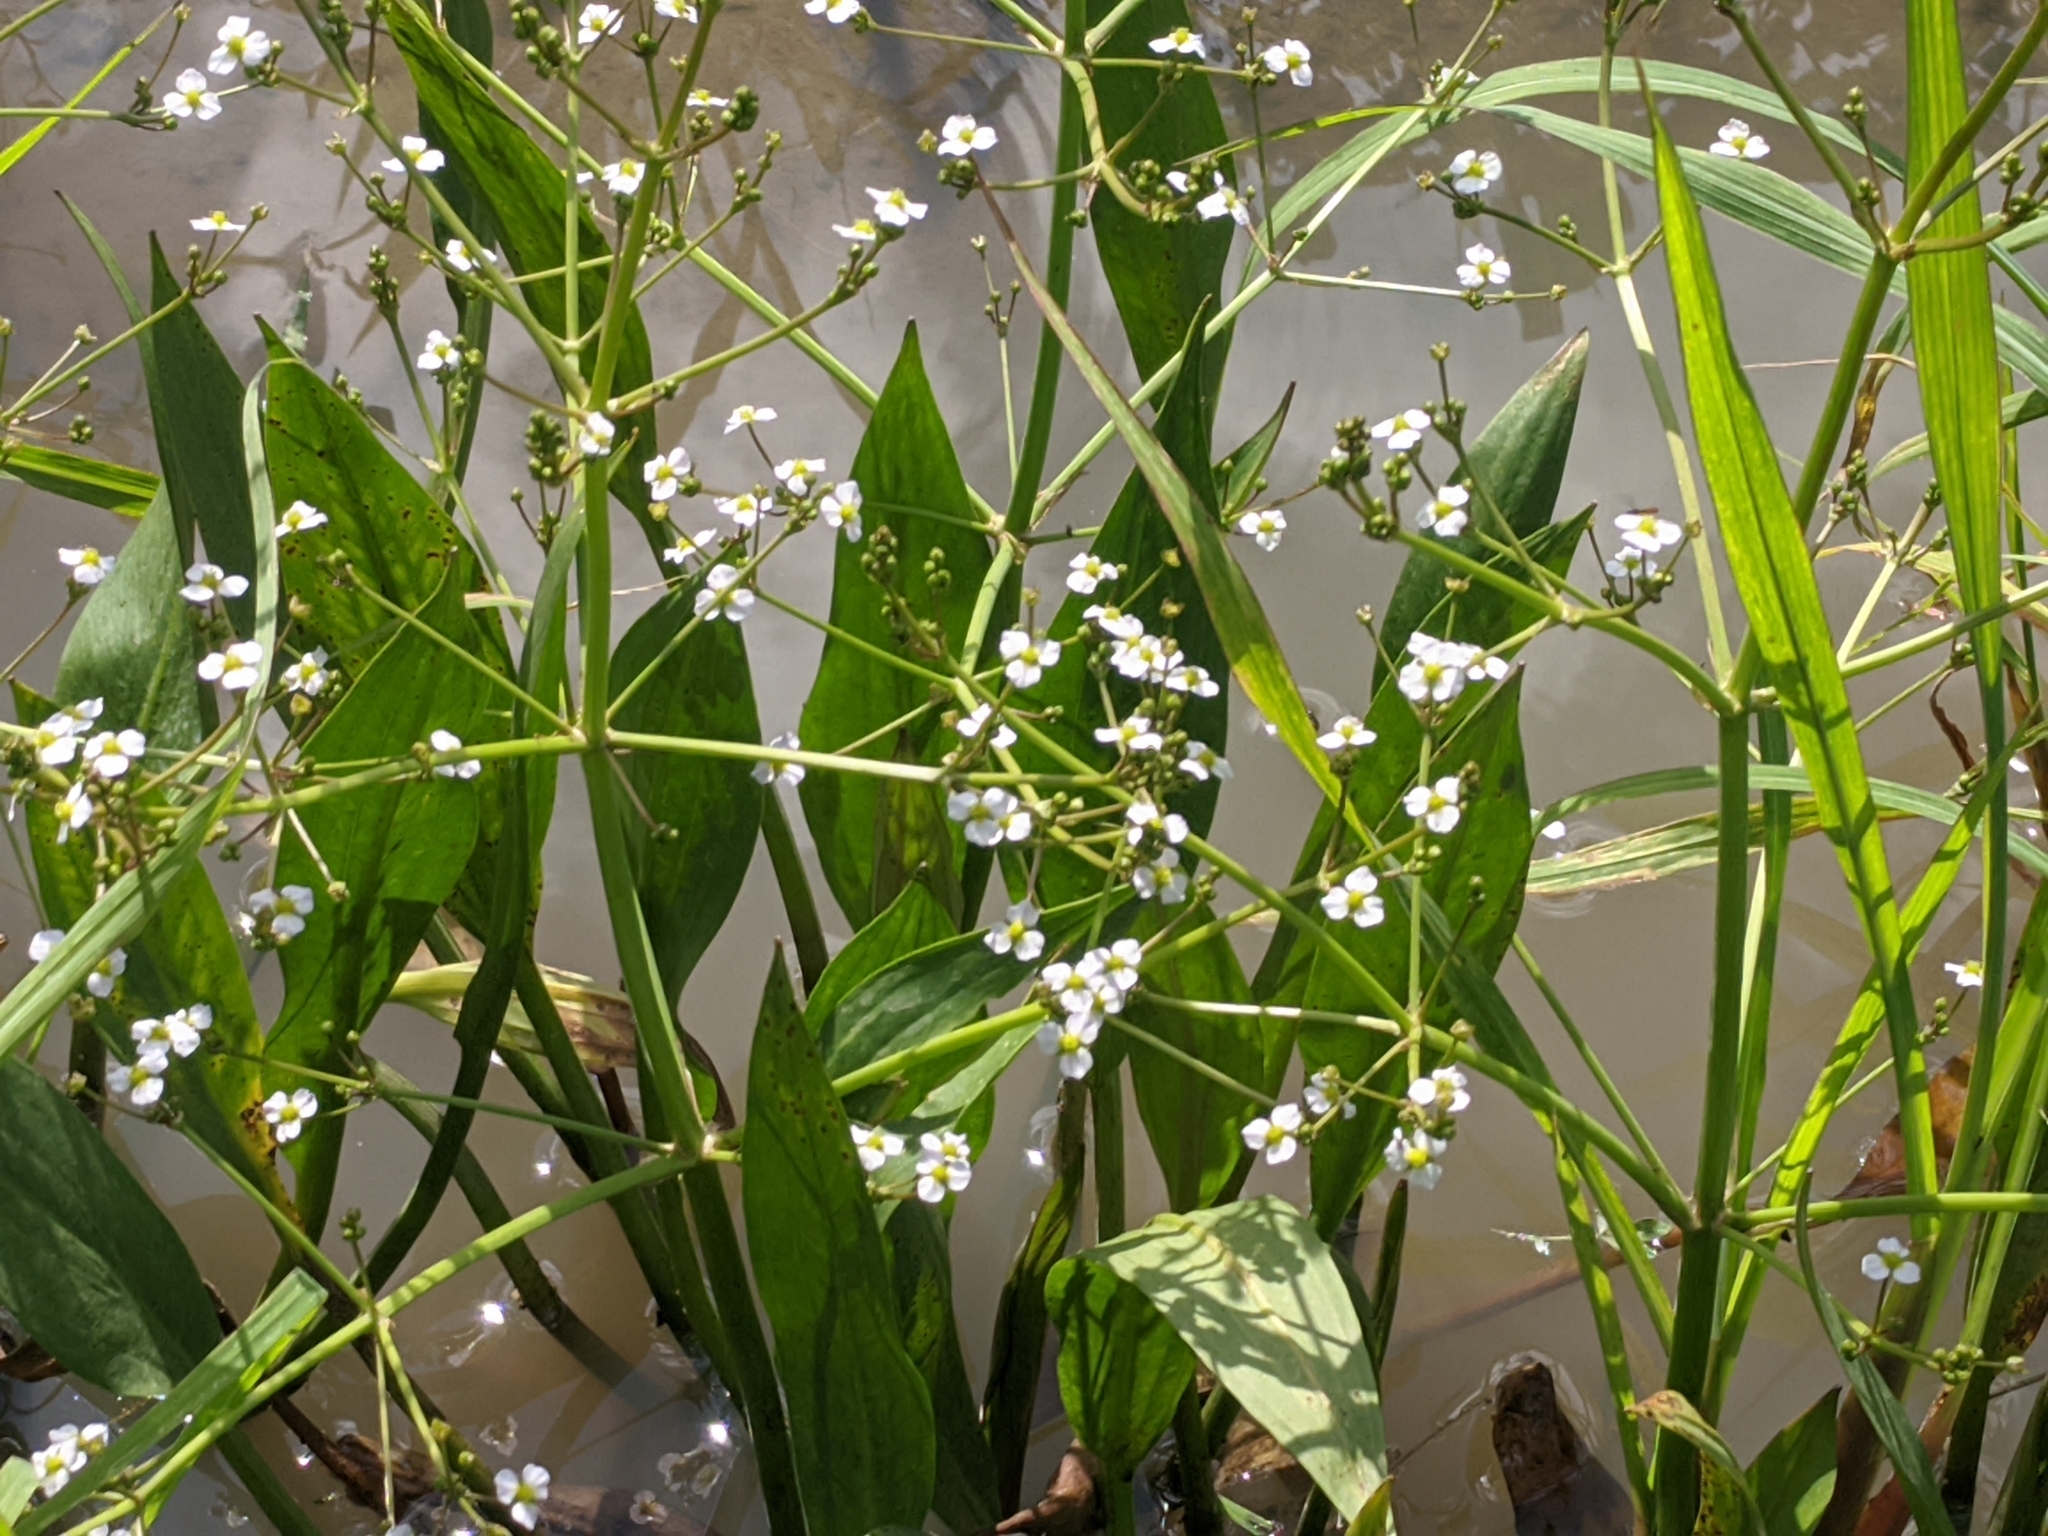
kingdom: Plantae
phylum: Tracheophyta
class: Liliopsida
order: Alismatales
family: Alismataceae
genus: Alisma
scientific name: Alisma plantago-aquatica
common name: Water-plantain
